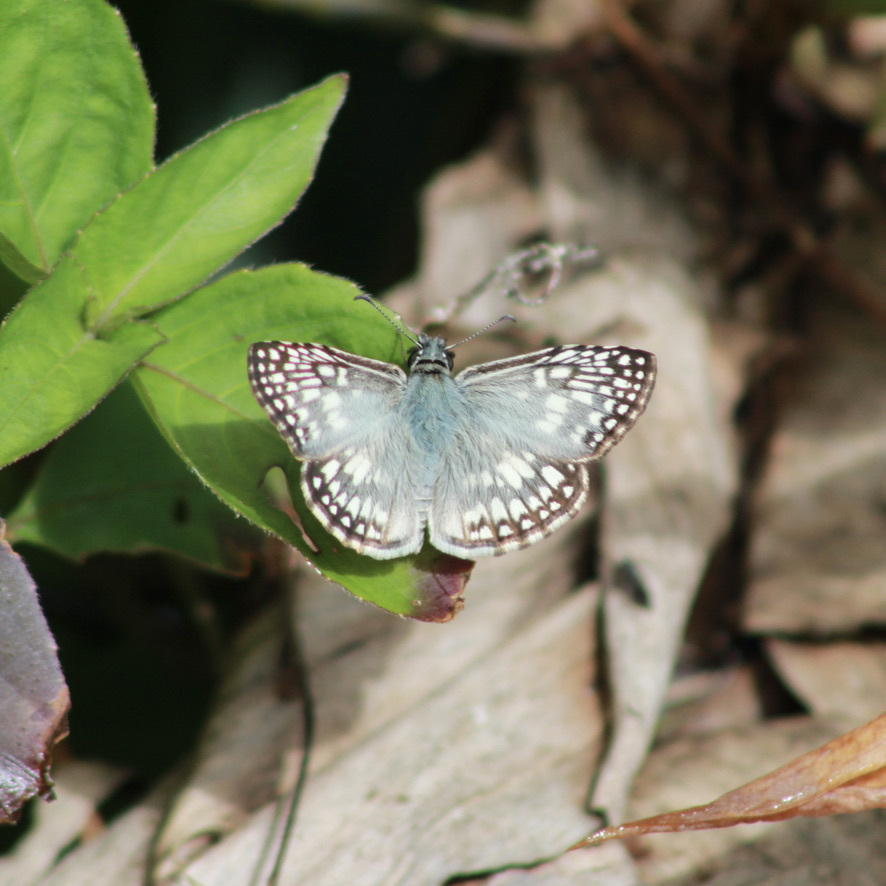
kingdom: Animalia
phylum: Arthropoda
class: Insecta
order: Lepidoptera
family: Hesperiidae
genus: Pyrgus
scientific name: Pyrgus oileus
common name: Tropical checkered-skipper
